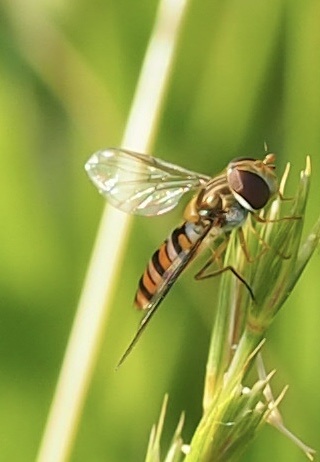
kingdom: Animalia
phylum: Arthropoda
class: Insecta
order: Diptera
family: Syrphidae
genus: Episyrphus
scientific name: Episyrphus balteatus
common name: Marmalade hoverfly
